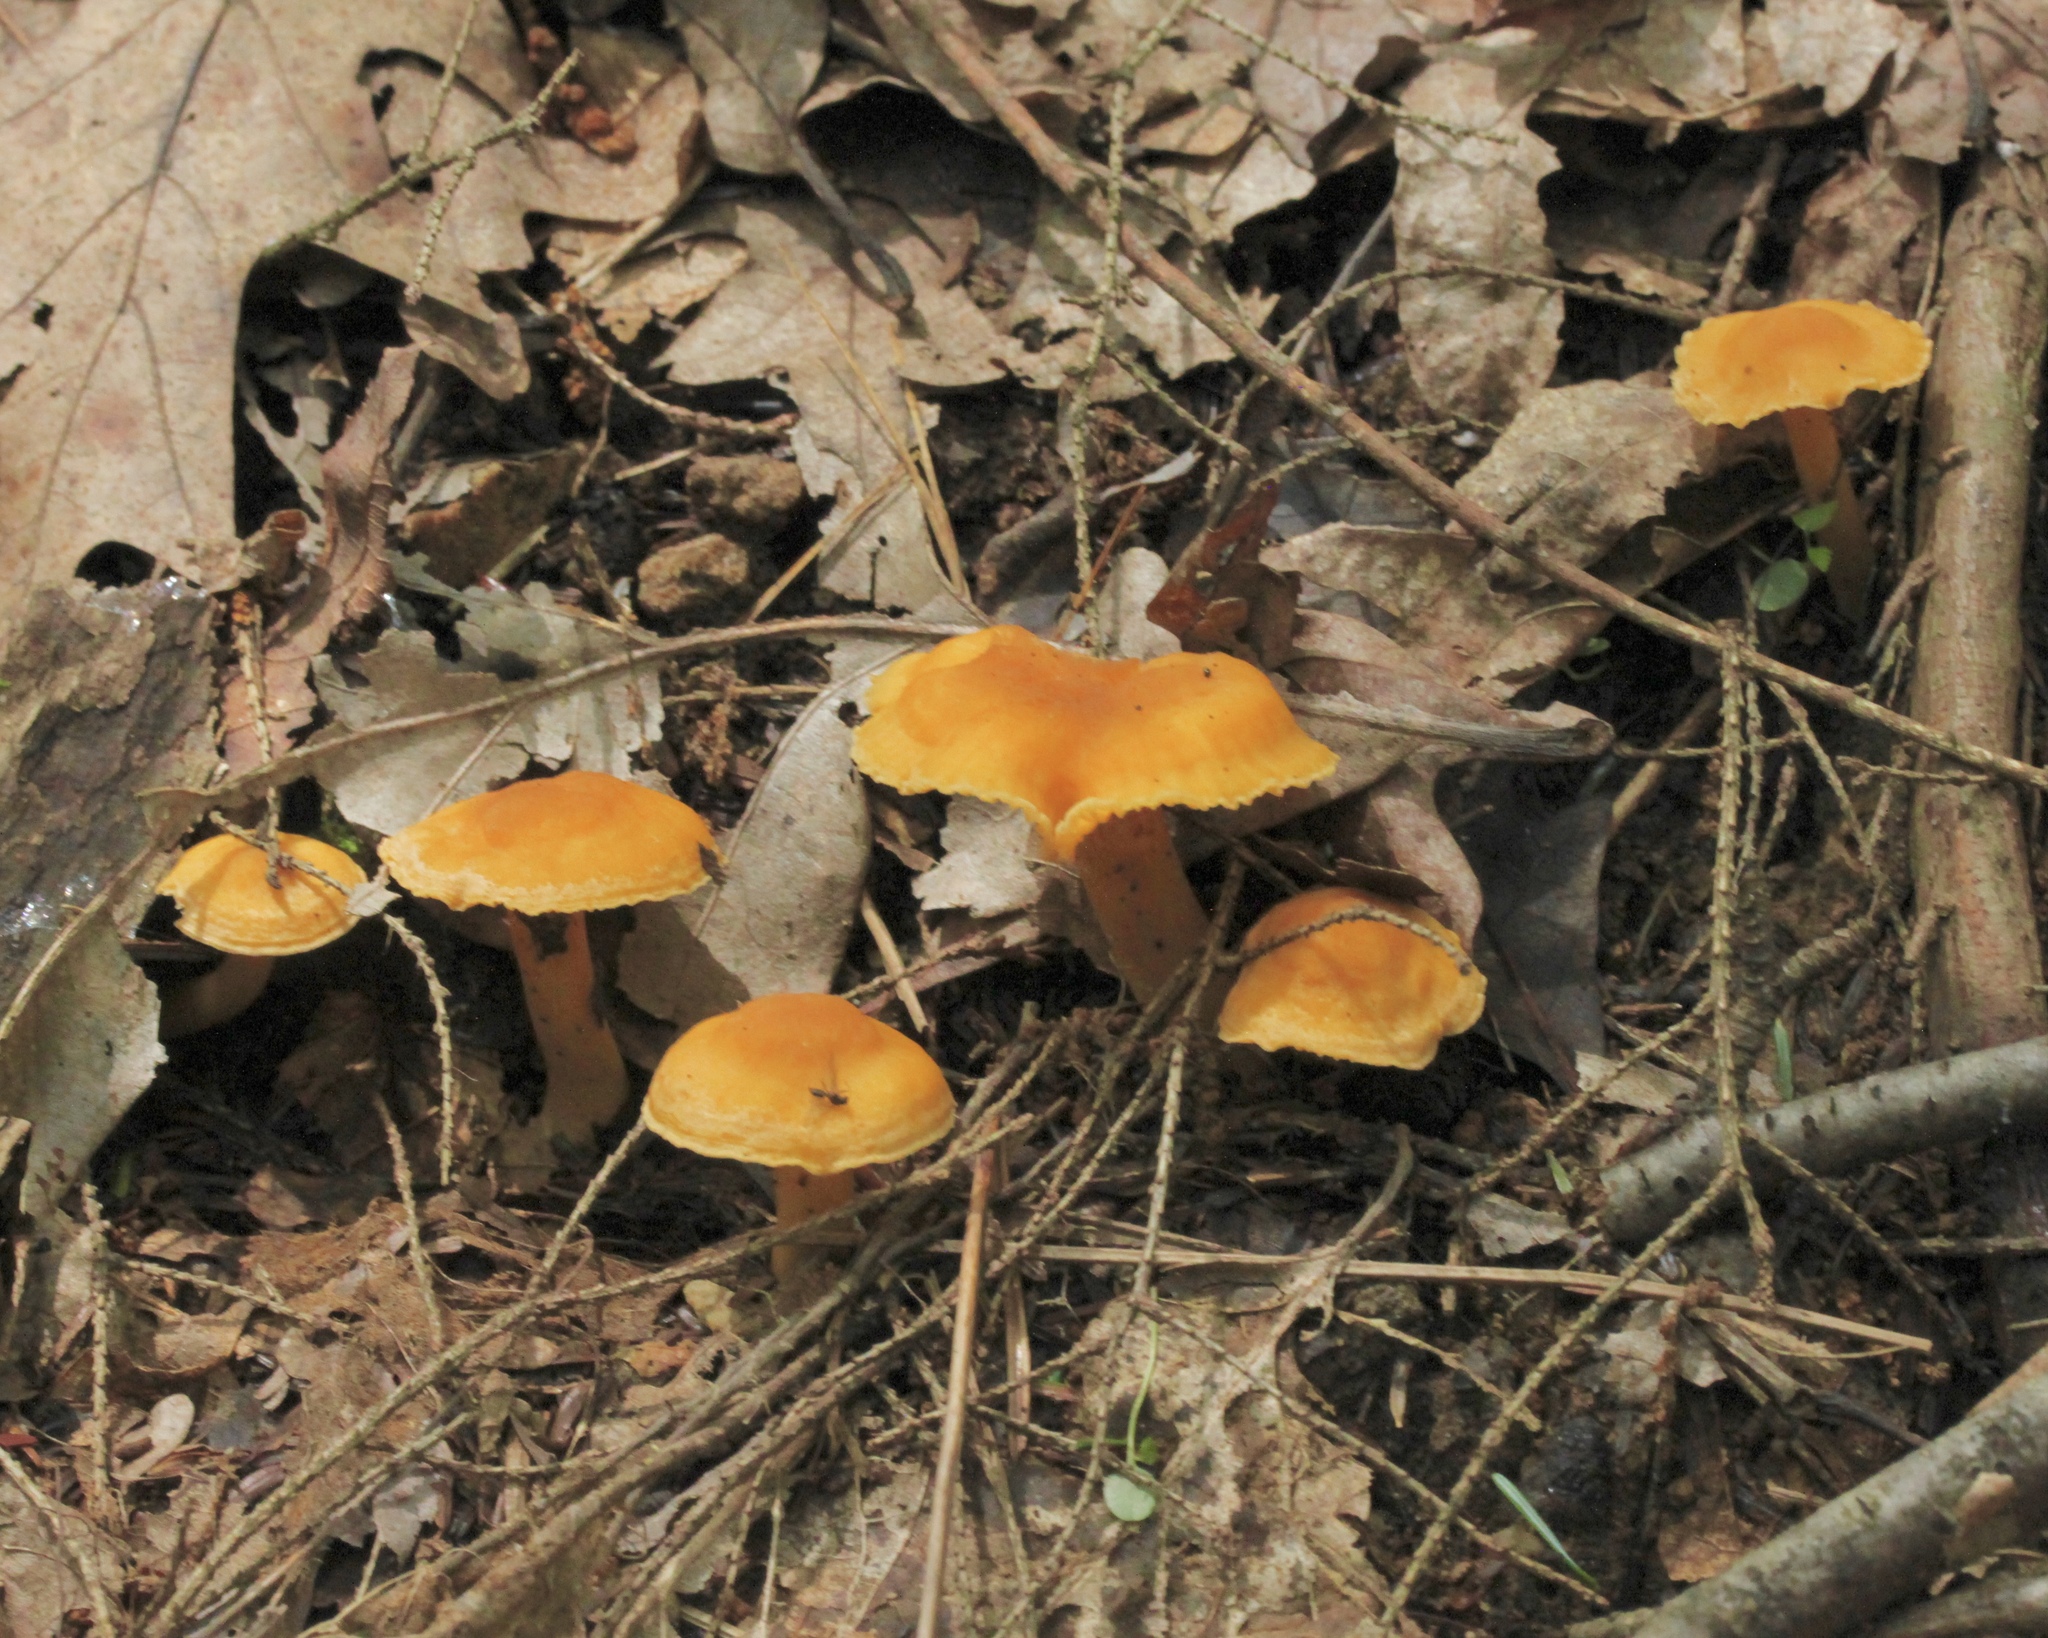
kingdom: Fungi
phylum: Basidiomycota
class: Agaricomycetes
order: Cantharellales
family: Hydnaceae
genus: Cantharellus
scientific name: Cantharellus appalachiensis
